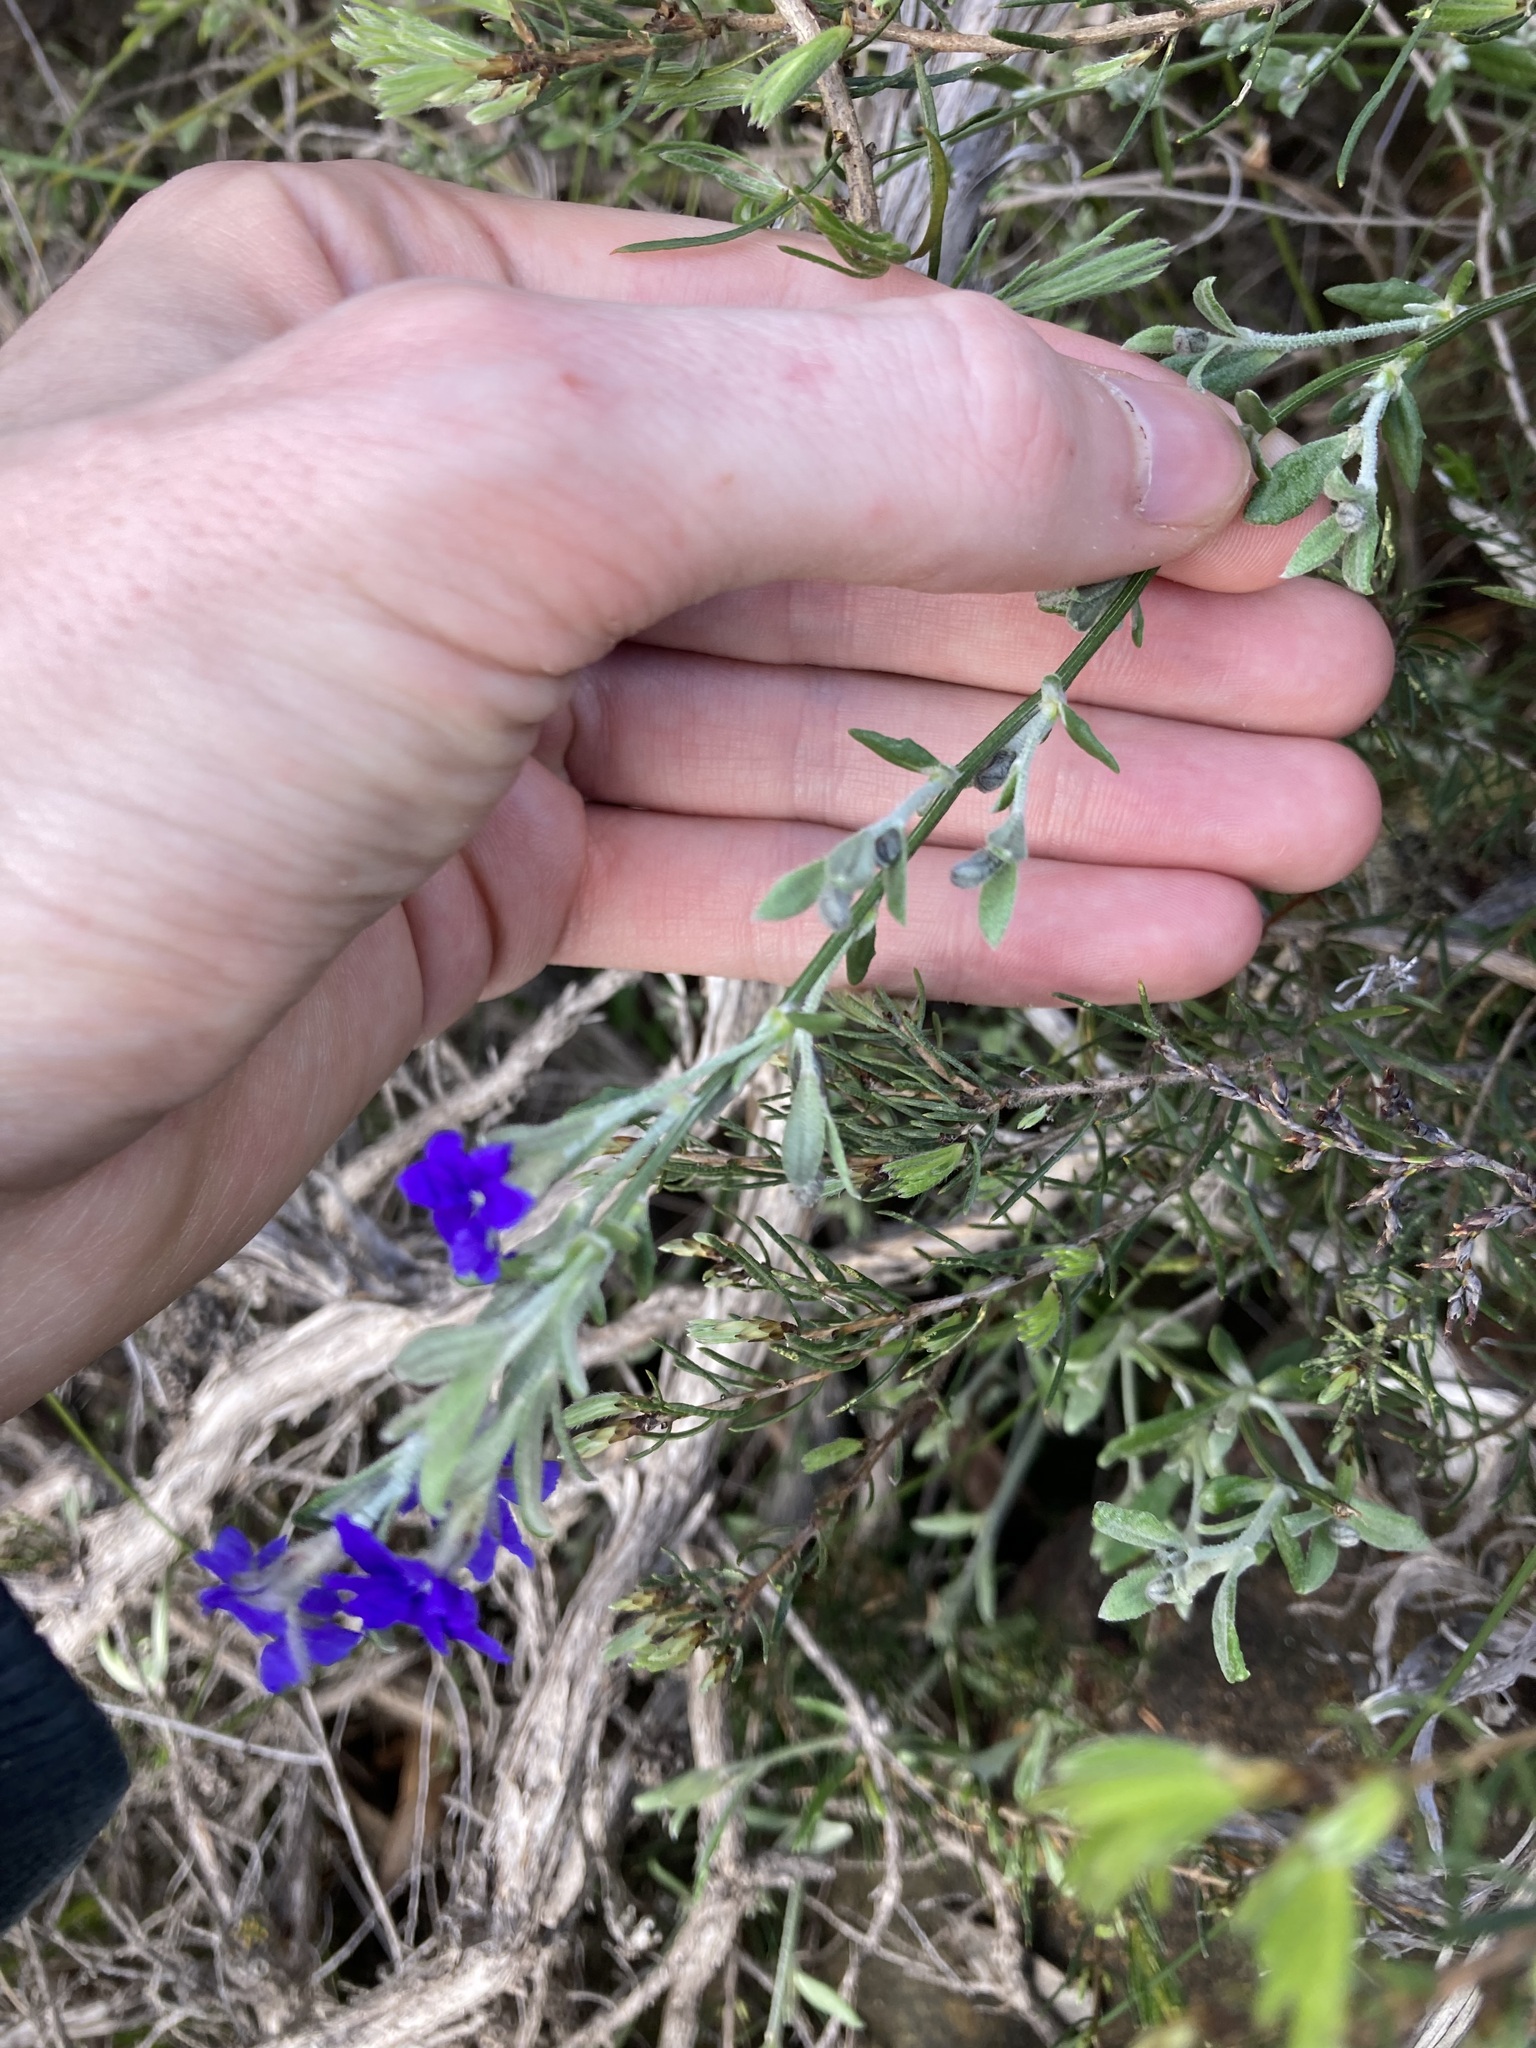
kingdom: Plantae
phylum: Tracheophyta
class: Magnoliopsida
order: Asterales
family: Goodeniaceae
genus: Dampiera
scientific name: Dampiera lavandulacea
